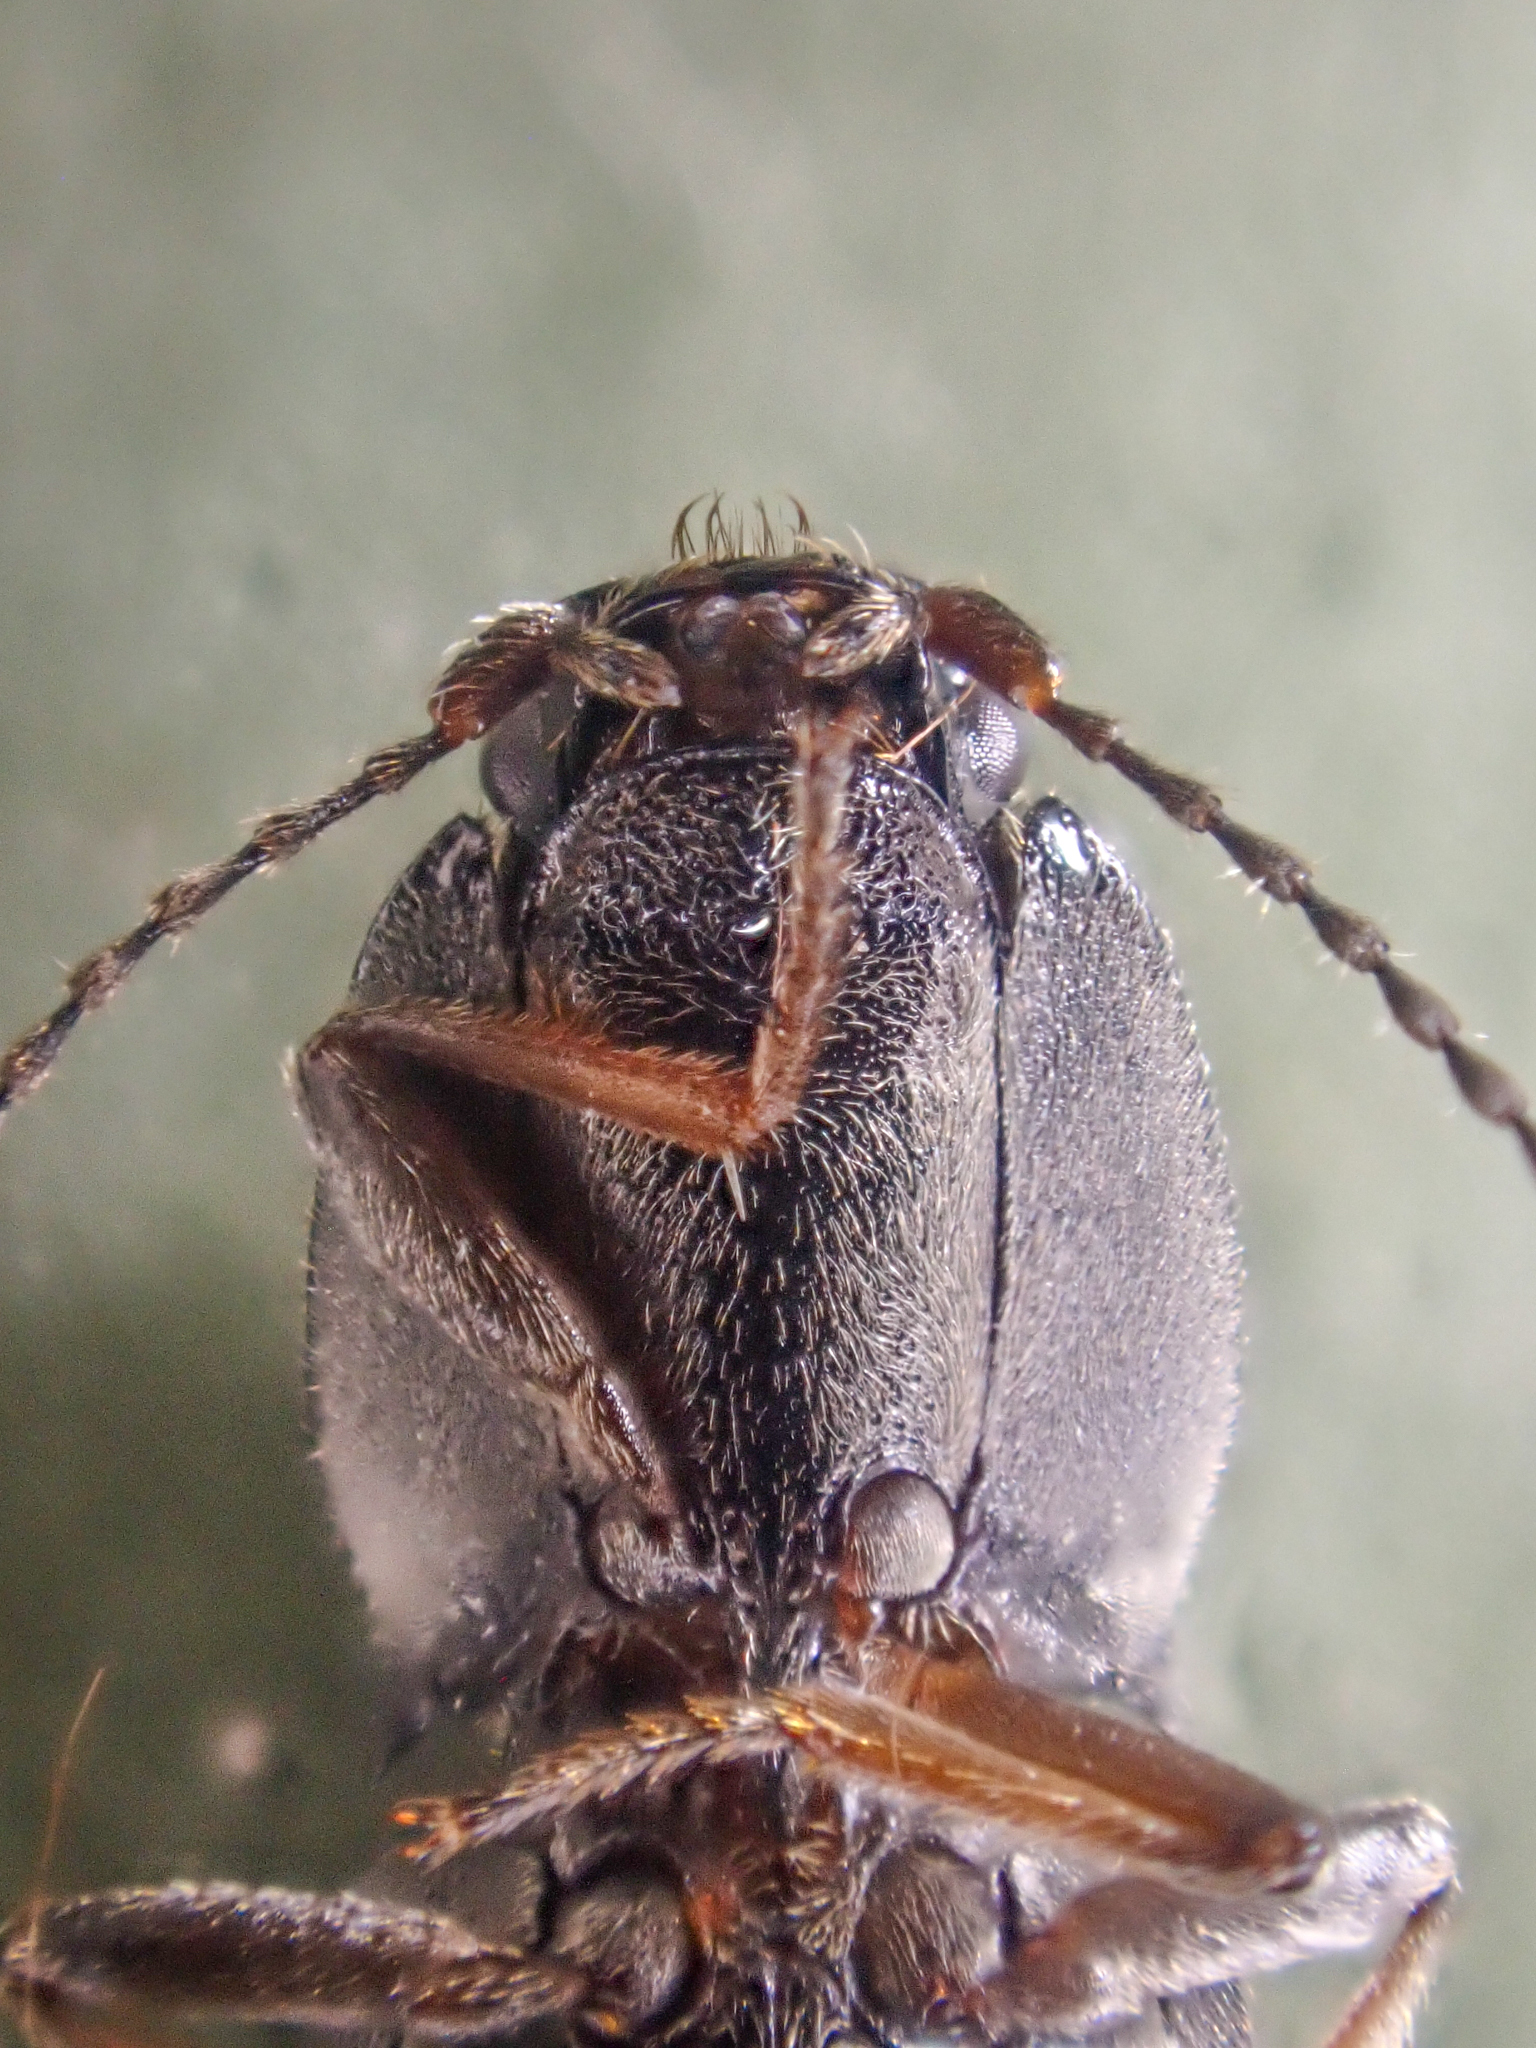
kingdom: Animalia
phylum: Arthropoda
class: Insecta
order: Coleoptera
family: Elateridae
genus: Ligmargus
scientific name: Ligmargus funebris
